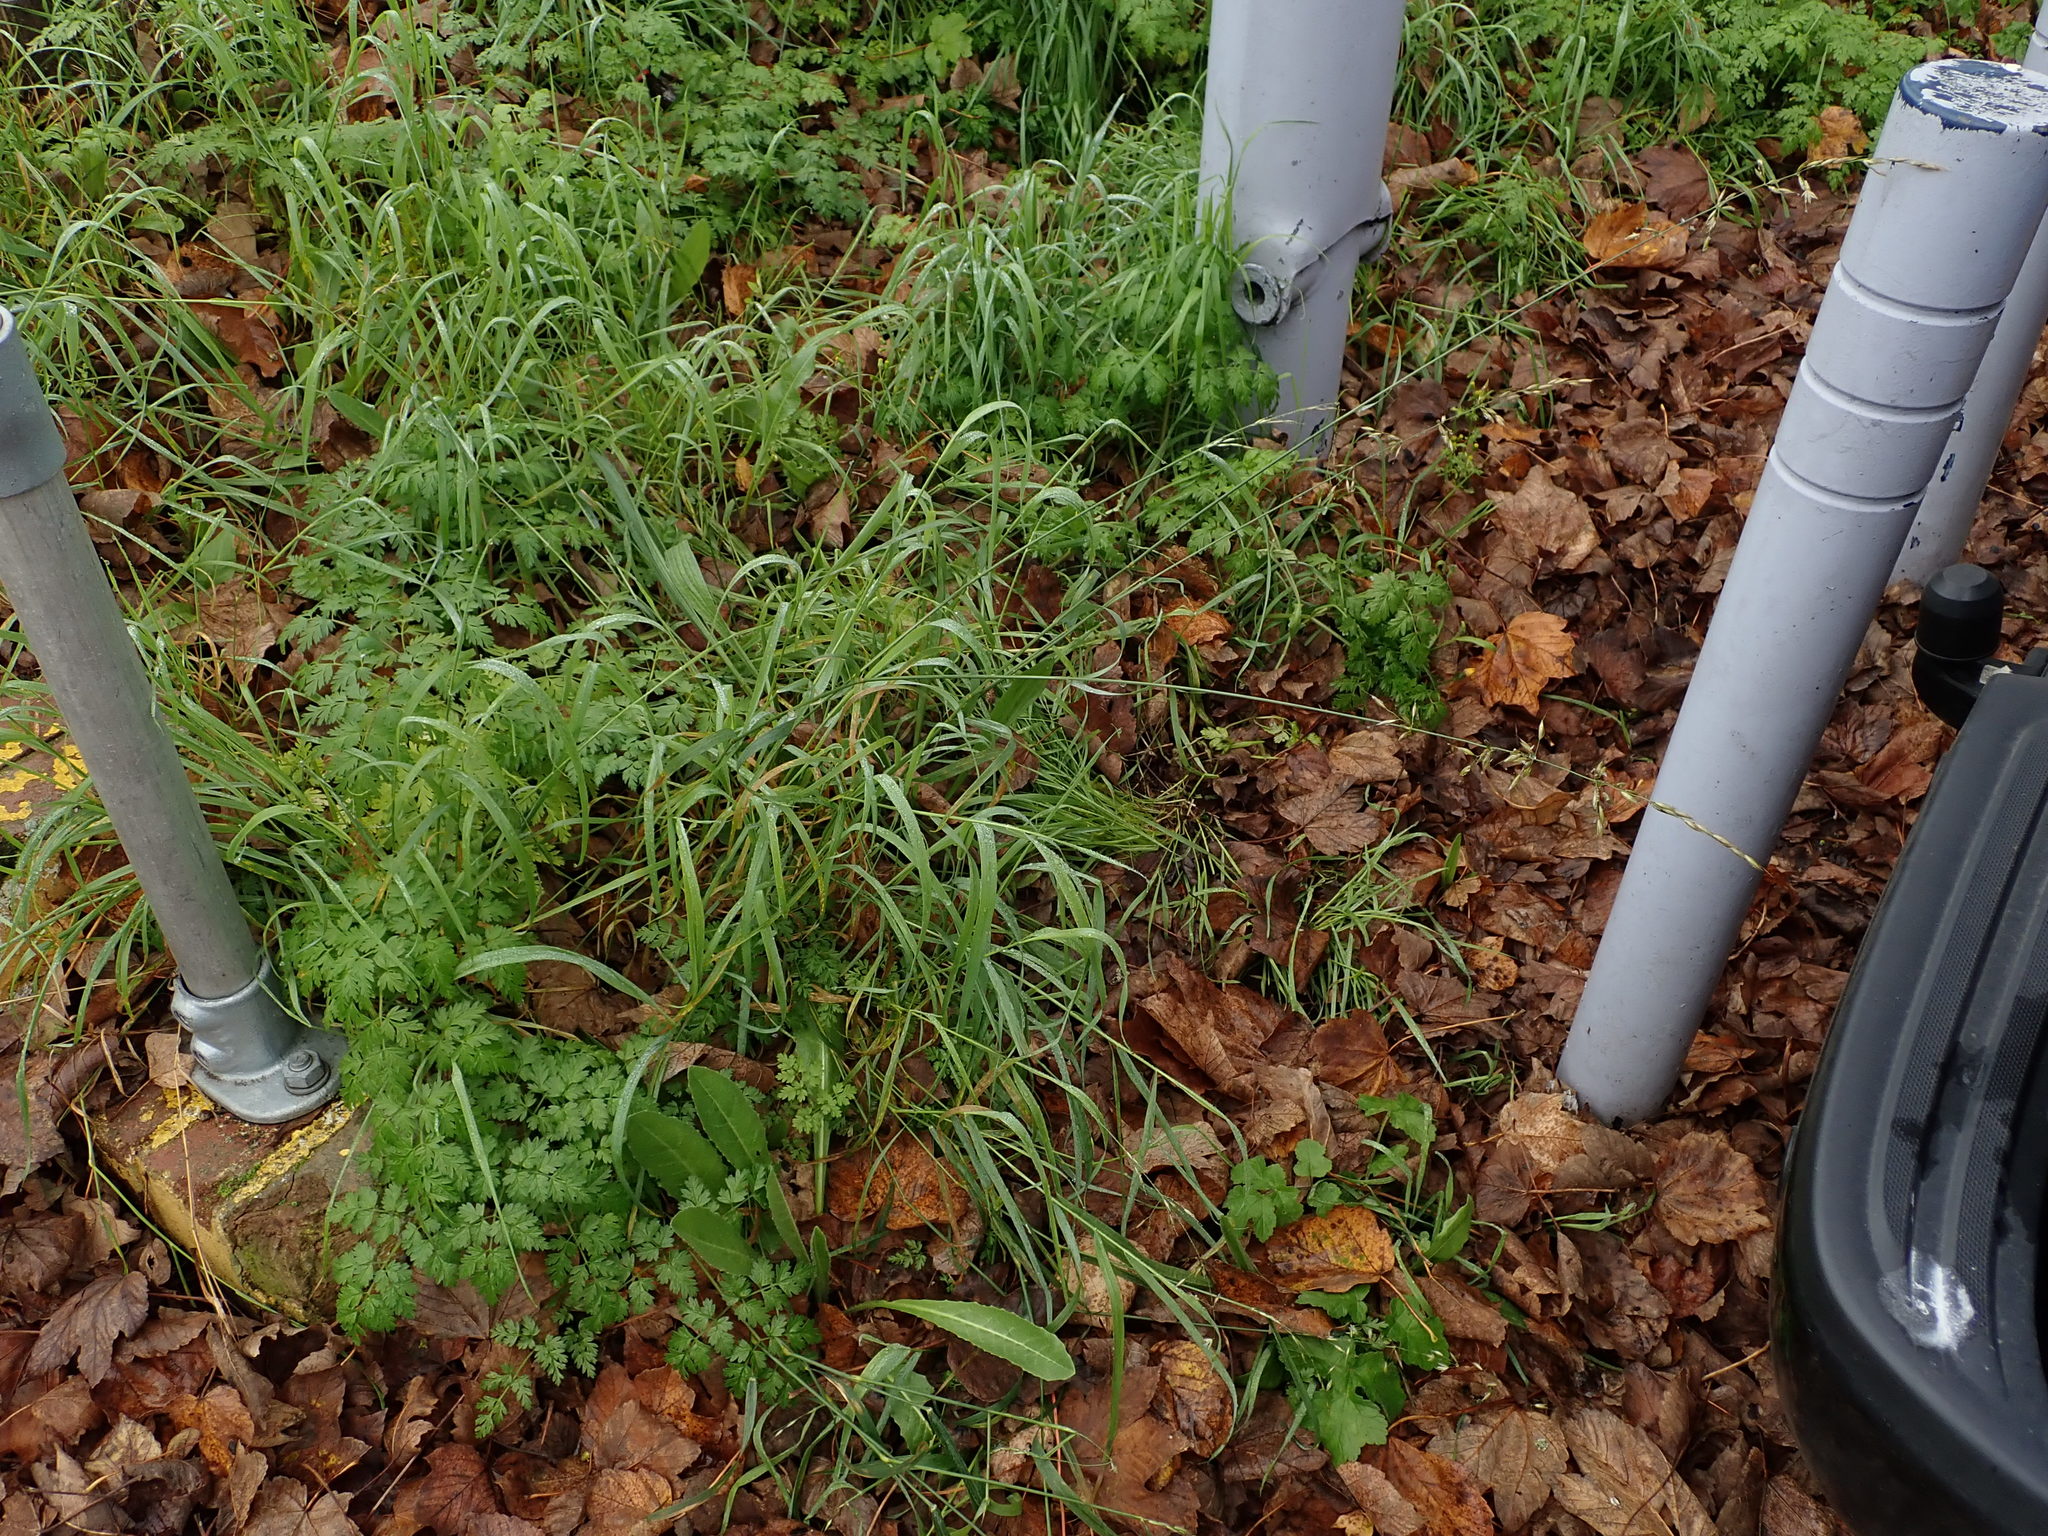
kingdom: Plantae
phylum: Tracheophyta
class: Liliopsida
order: Poales
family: Poaceae
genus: Arrhenatherum
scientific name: Arrhenatherum elatius
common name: Tall oatgrass
